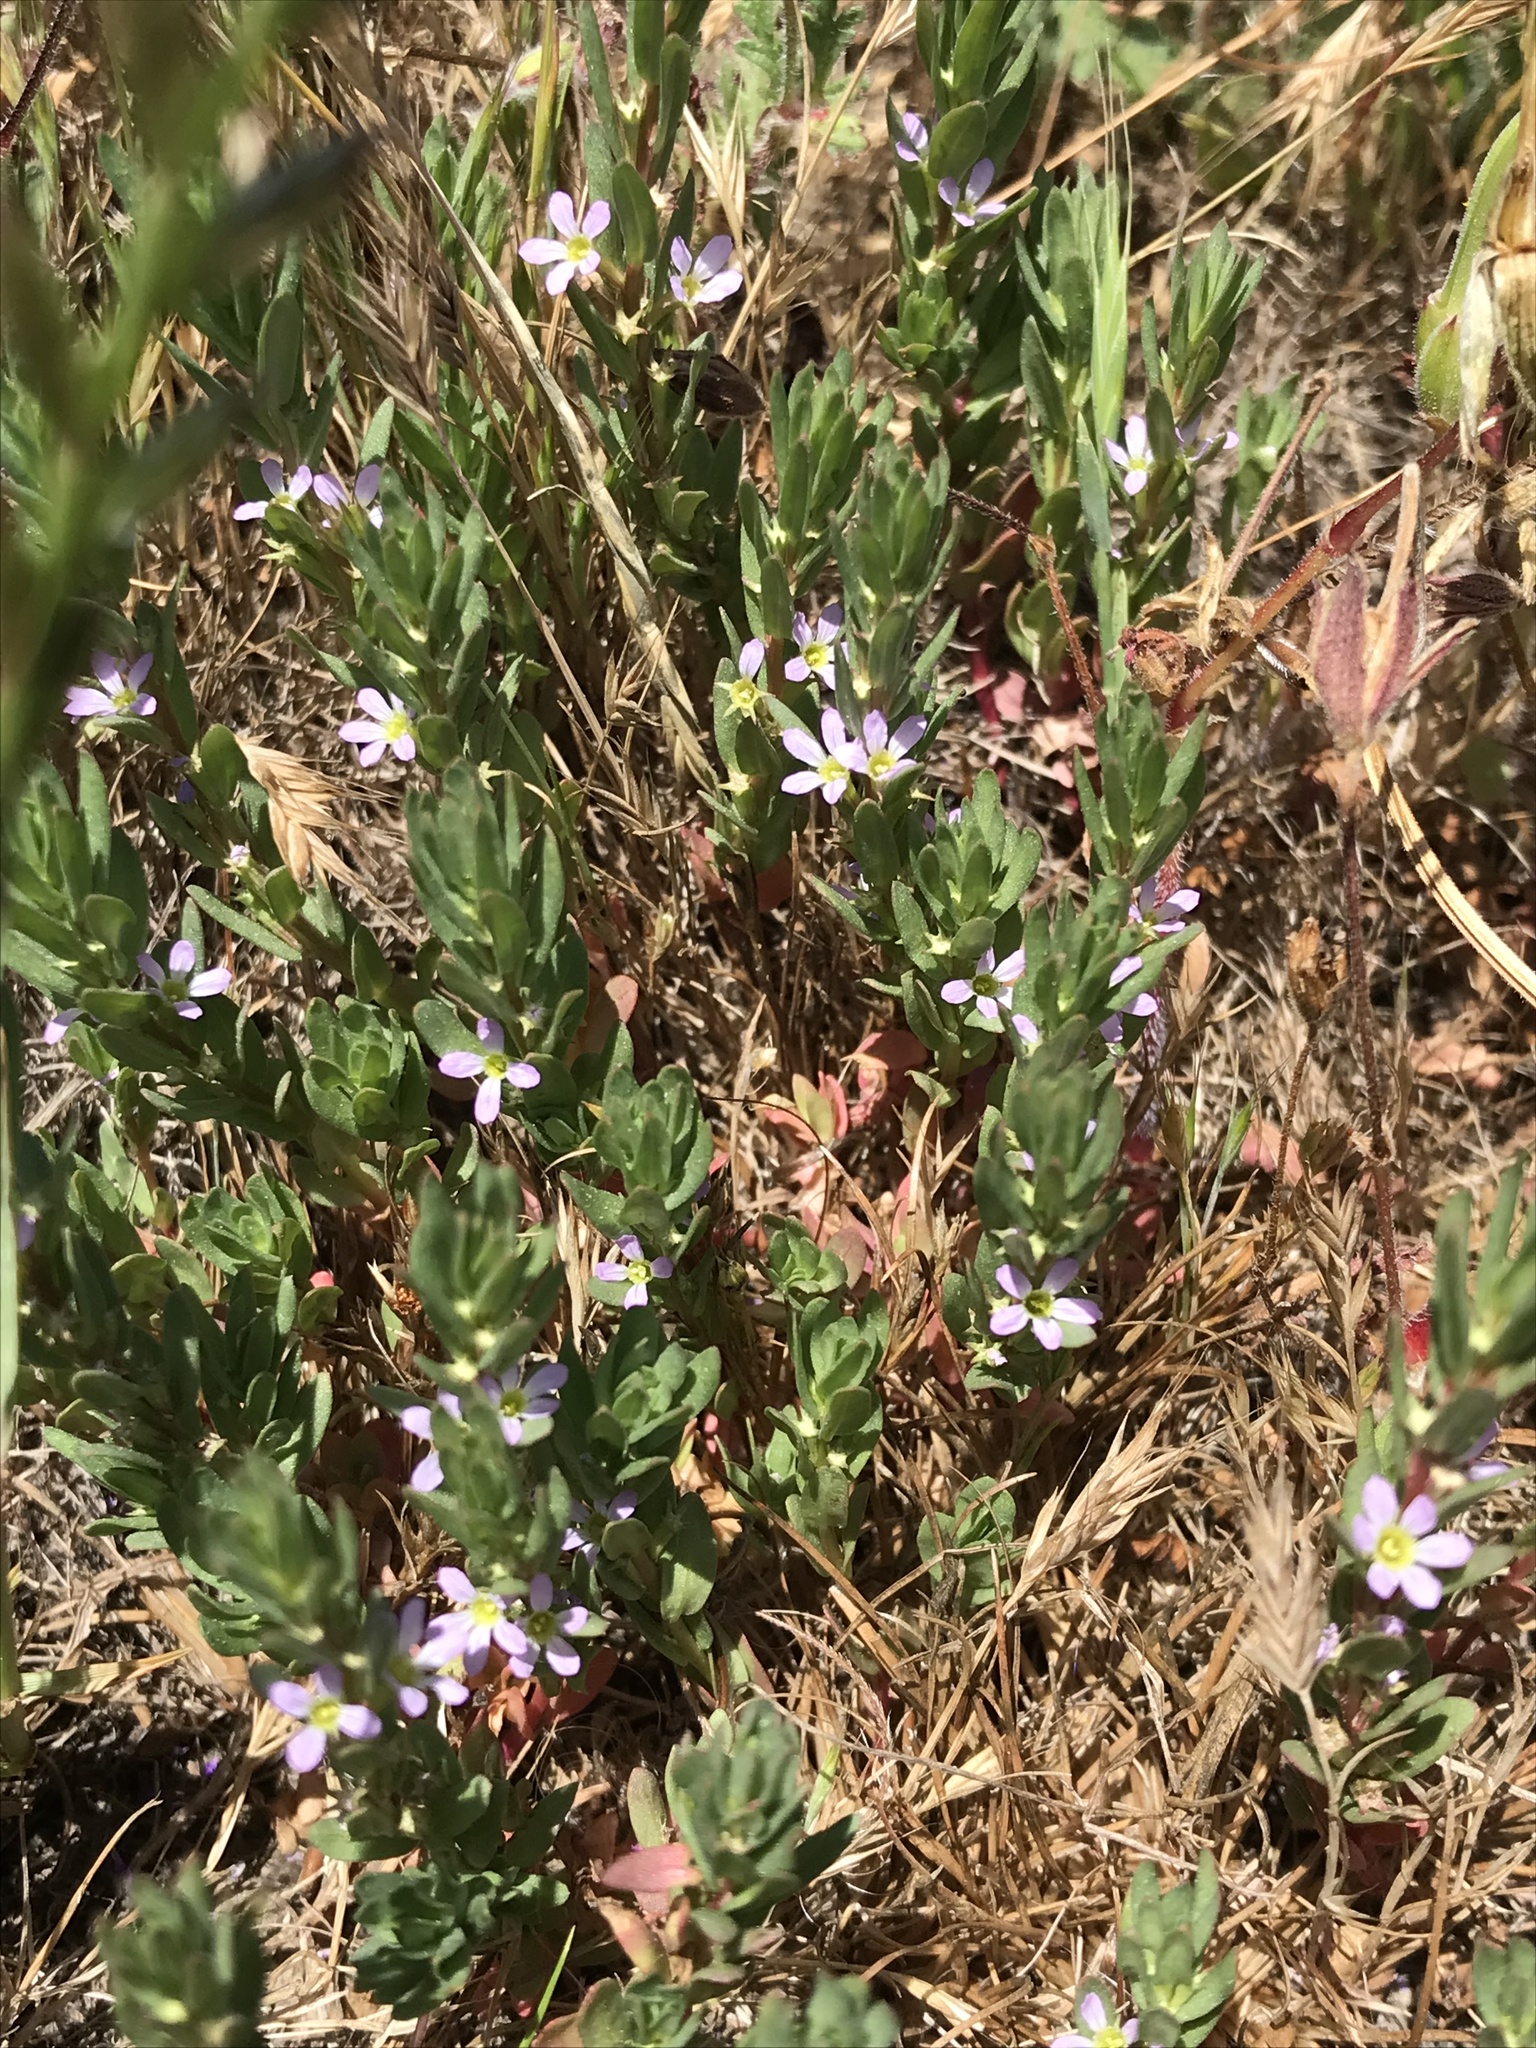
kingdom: Plantae
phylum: Tracheophyta
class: Magnoliopsida
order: Myrtales
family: Lythraceae
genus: Lythrum
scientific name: Lythrum hyssopifolia
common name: Grass-poly
